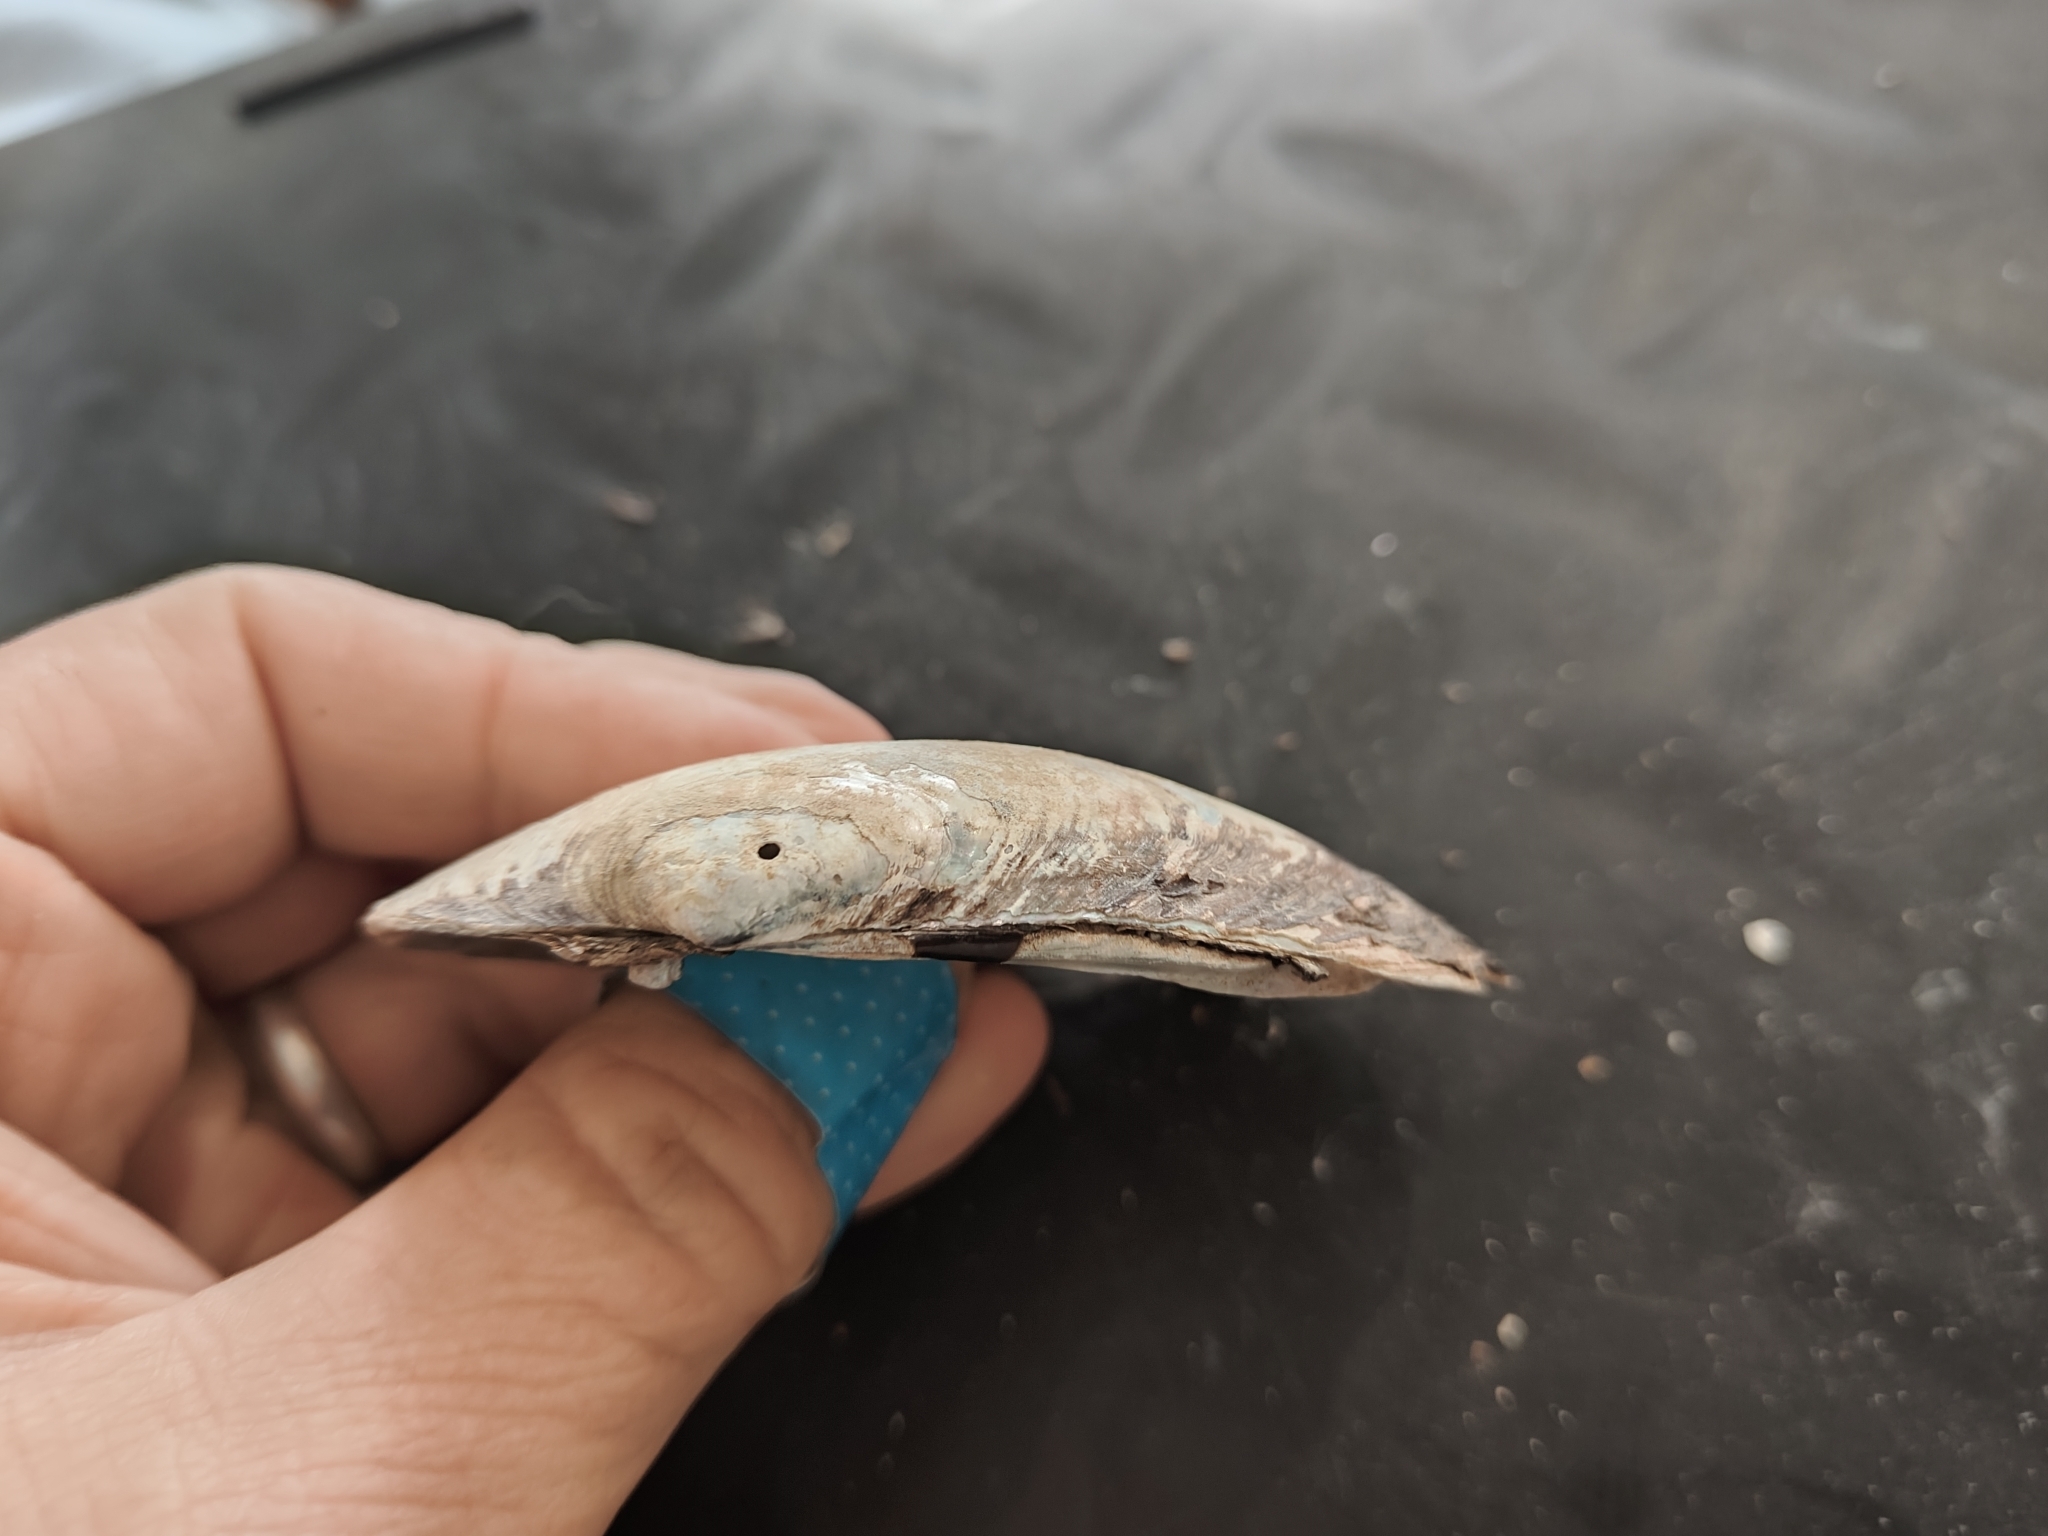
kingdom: Animalia
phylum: Mollusca
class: Bivalvia
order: Unionida
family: Unionidae
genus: Lampsilis
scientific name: Lampsilis siliquoidea
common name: Fatmucket
